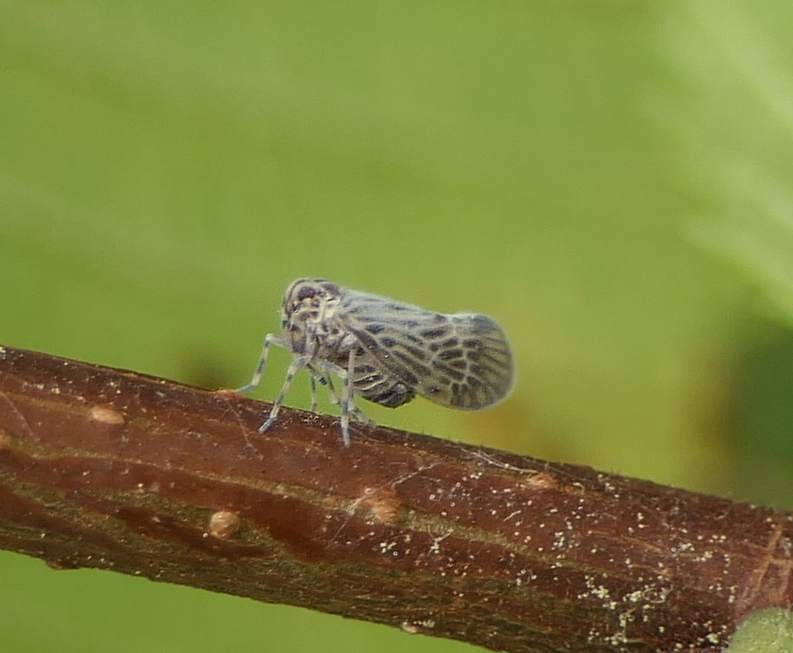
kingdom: Animalia
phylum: Arthropoda
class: Insecta
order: Hemiptera
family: Derbidae
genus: Cedusa
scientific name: Cedusa maculata
